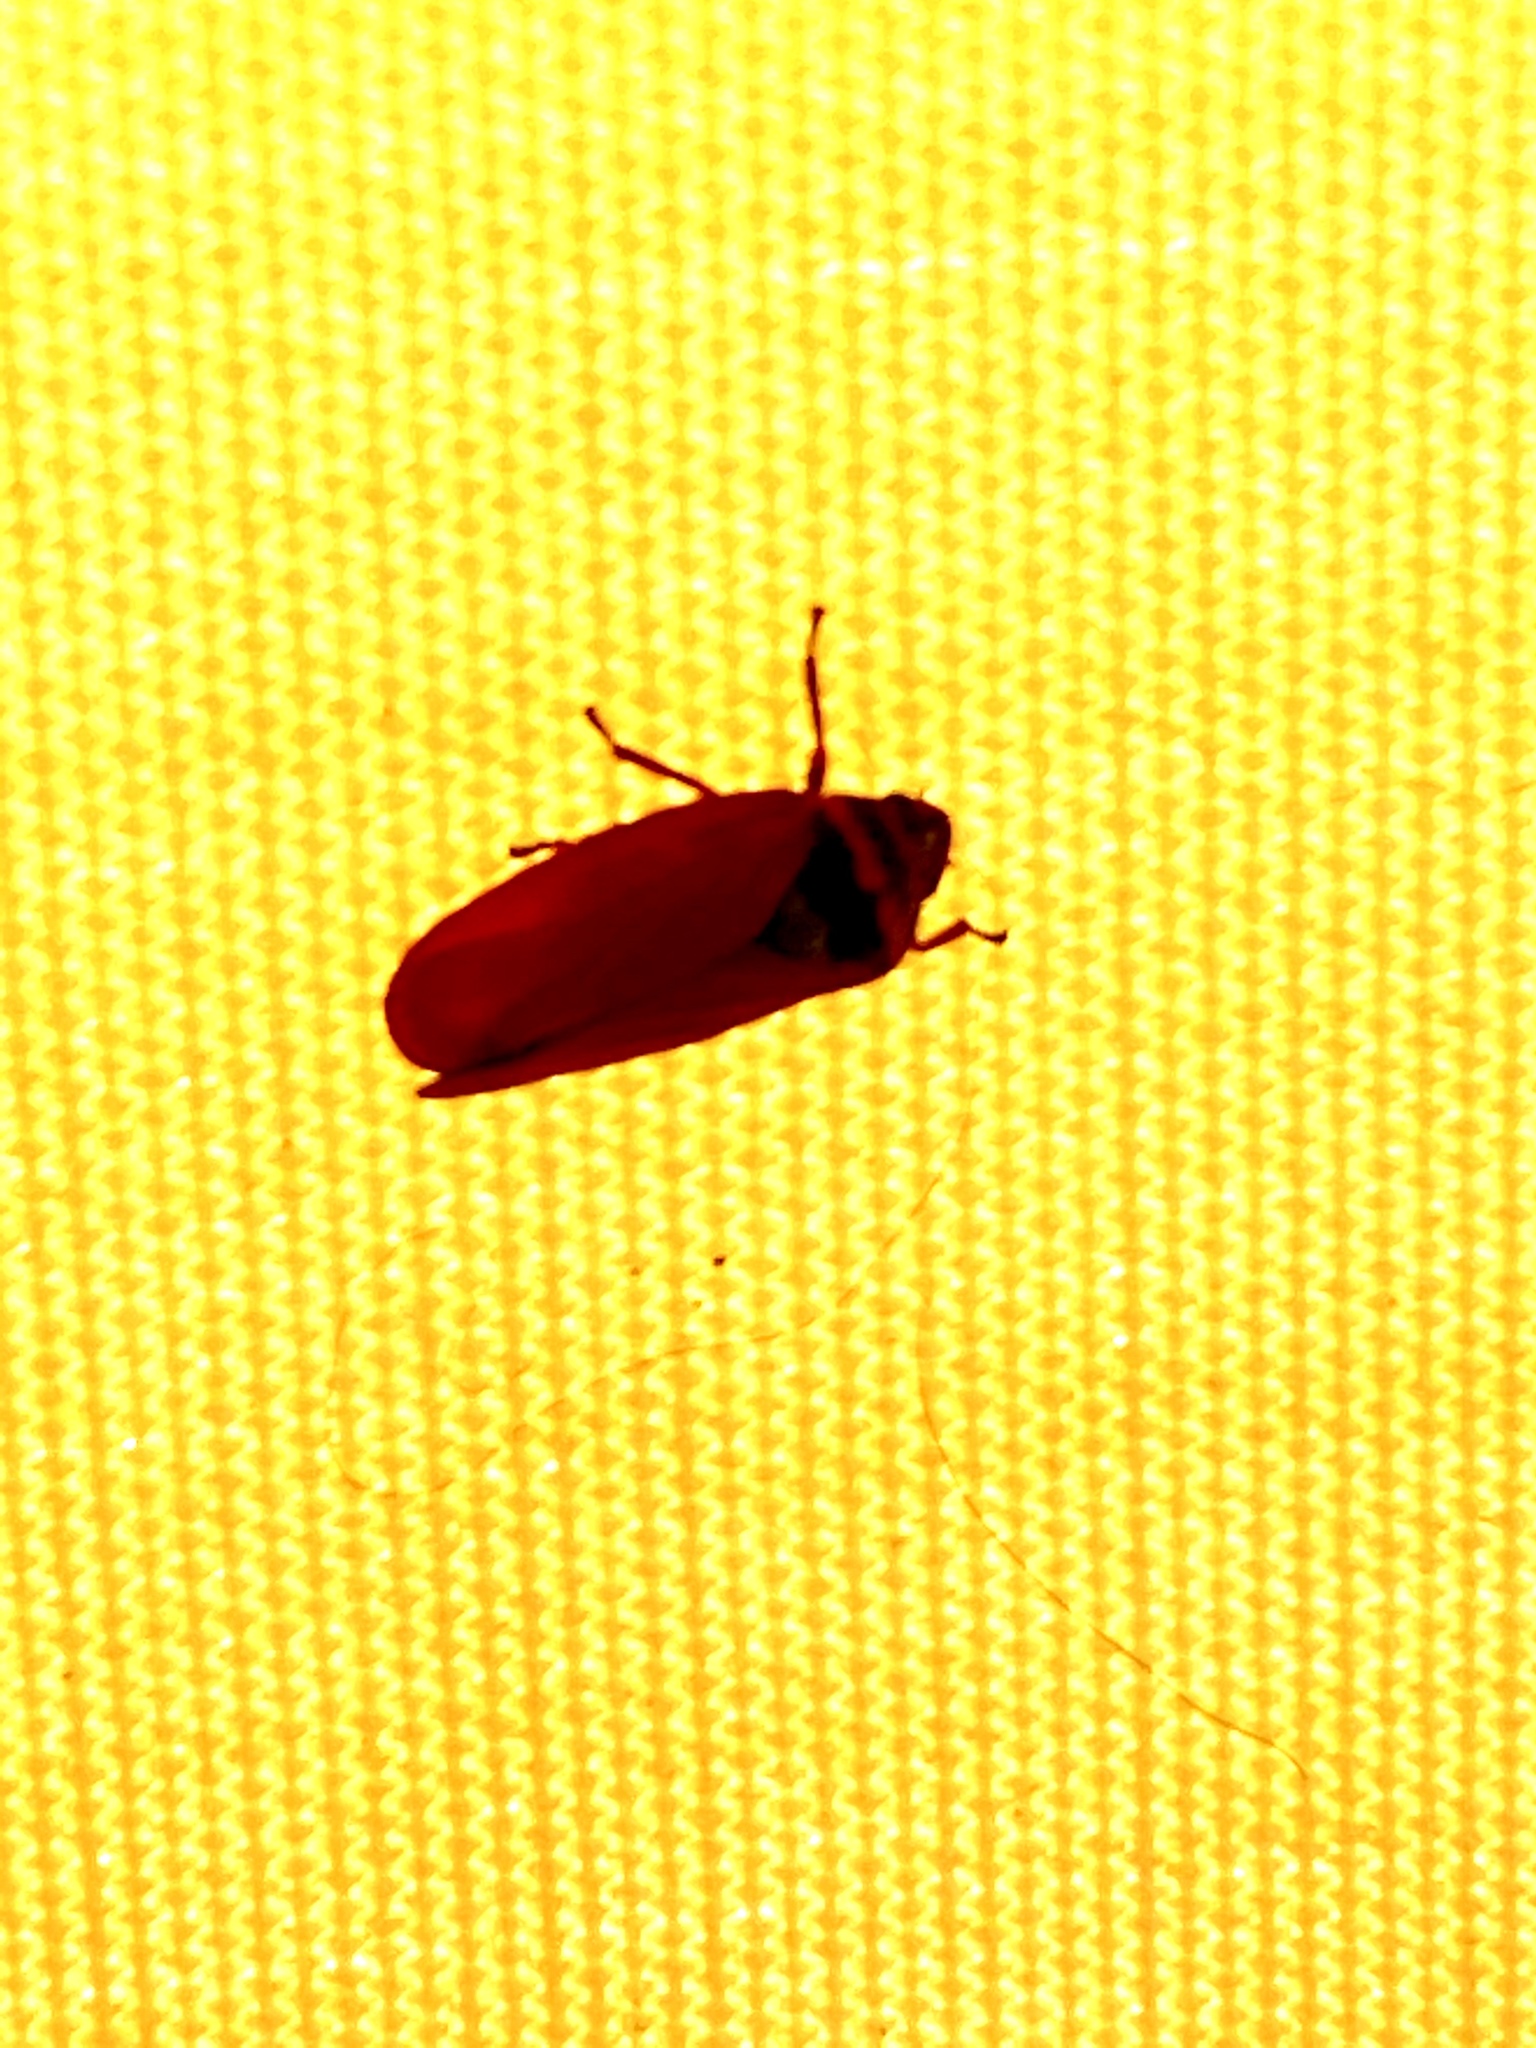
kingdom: Animalia
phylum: Arthropoda
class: Insecta
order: Hemiptera
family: Cercopidae
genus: Locris
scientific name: Locris transversa
